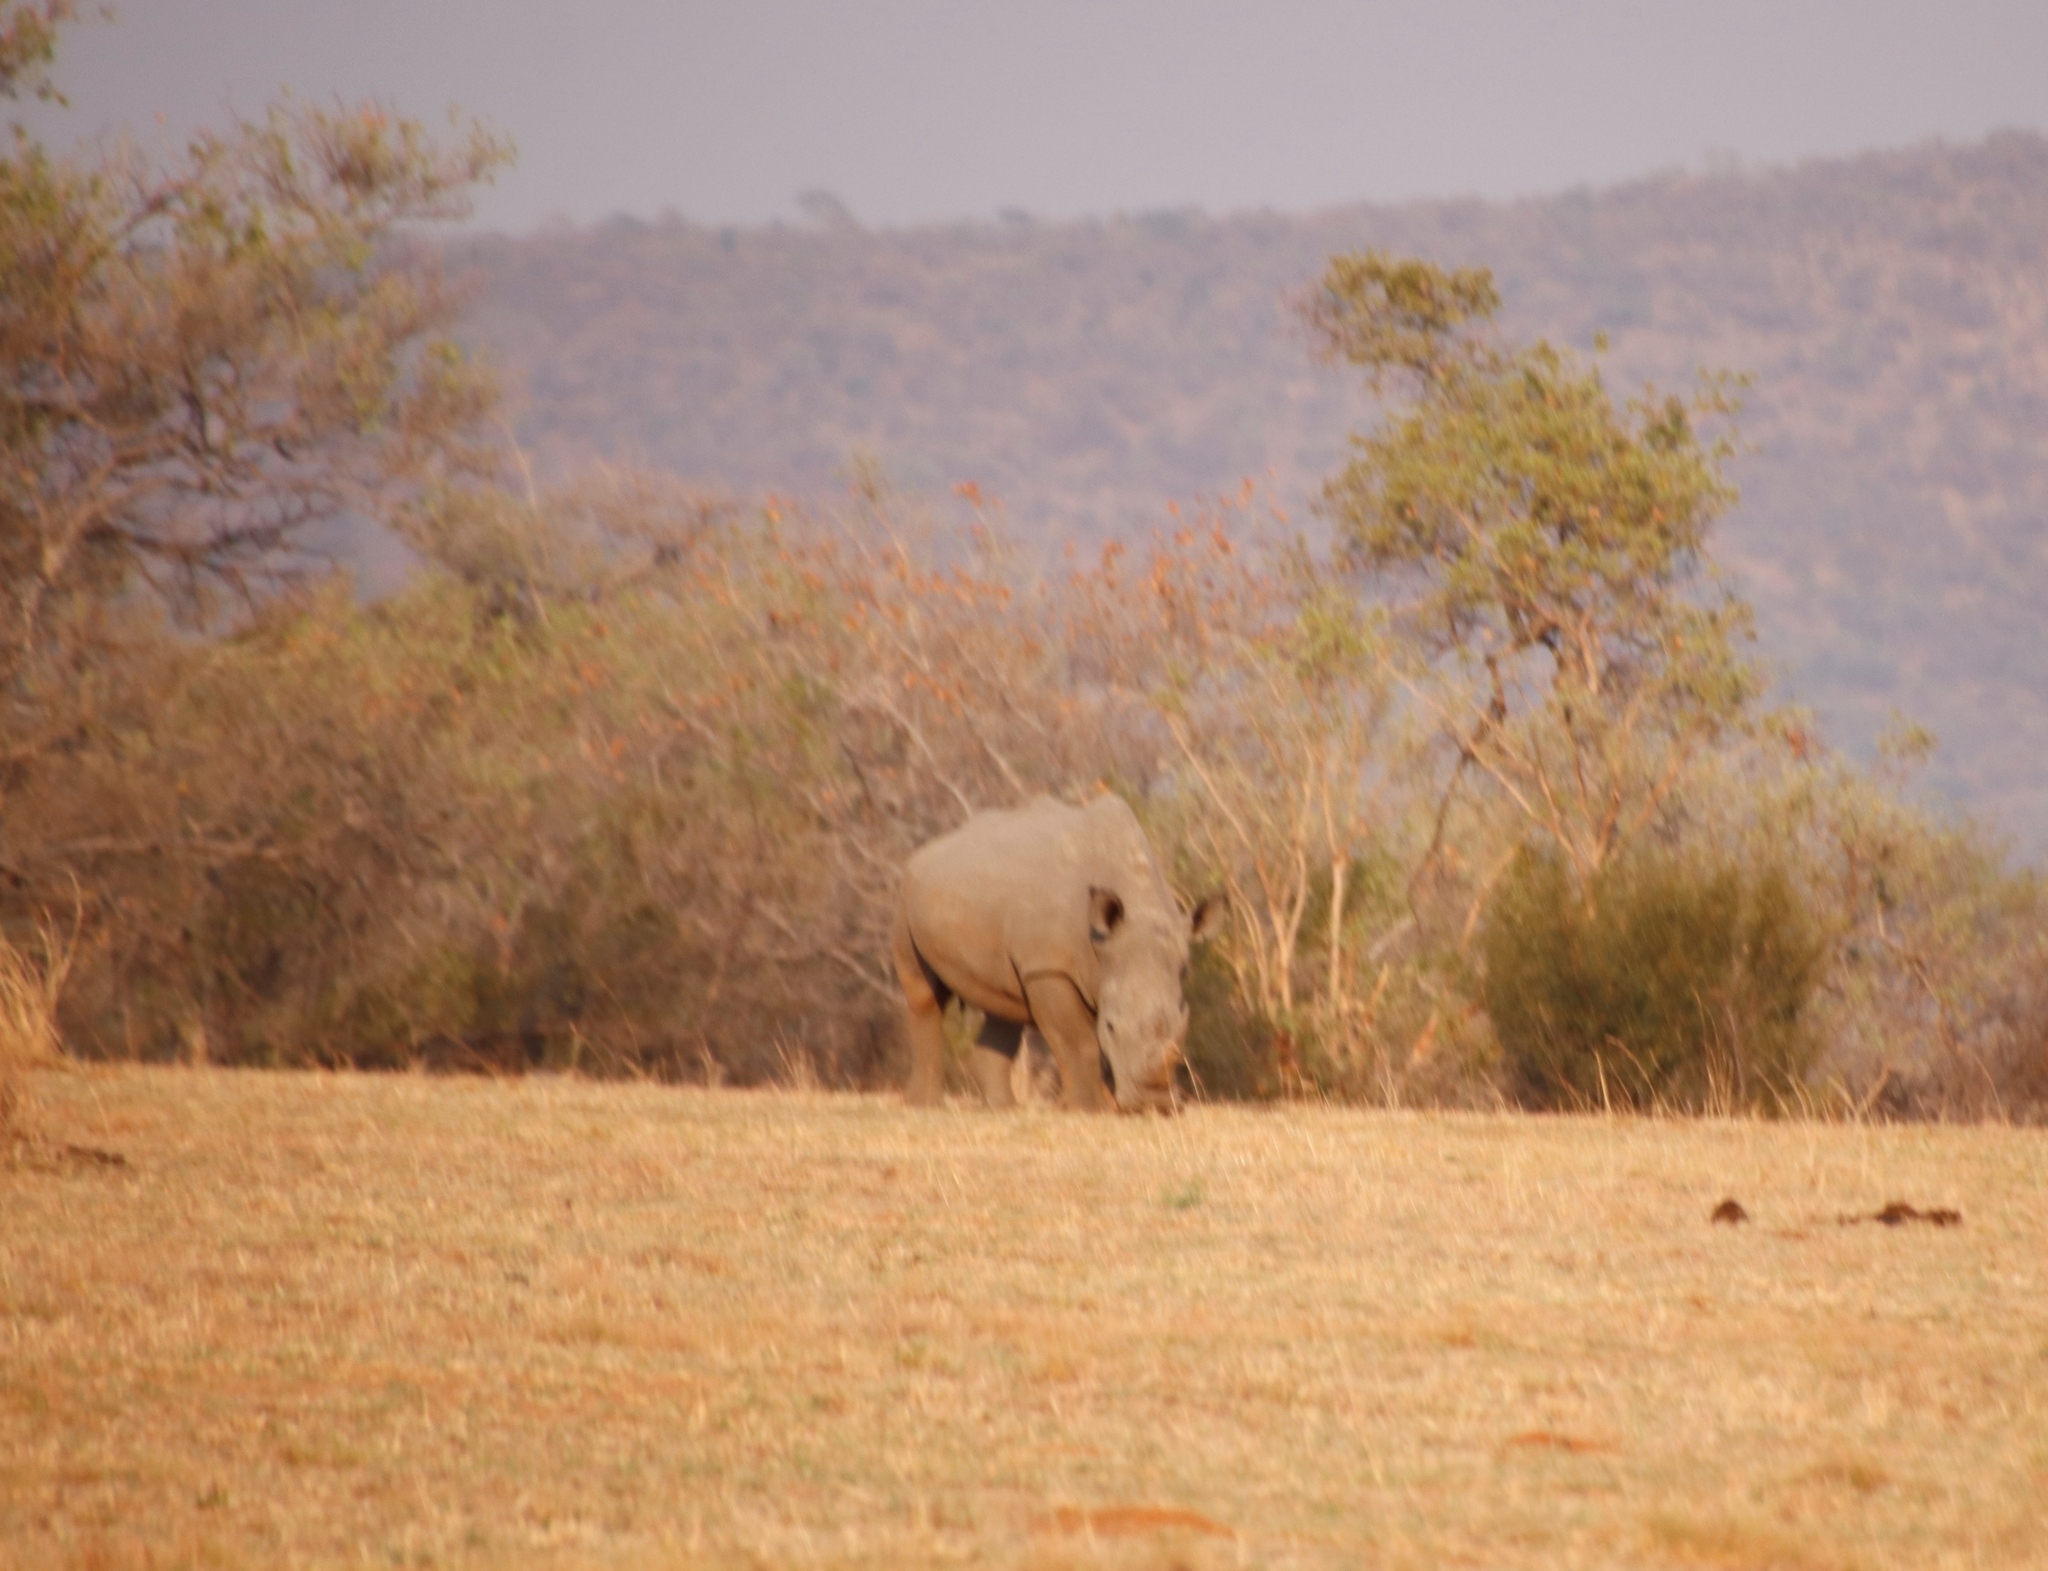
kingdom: Animalia
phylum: Chordata
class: Mammalia
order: Perissodactyla
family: Rhinocerotidae
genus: Ceratotherium
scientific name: Ceratotherium simum
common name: White rhinoceros
